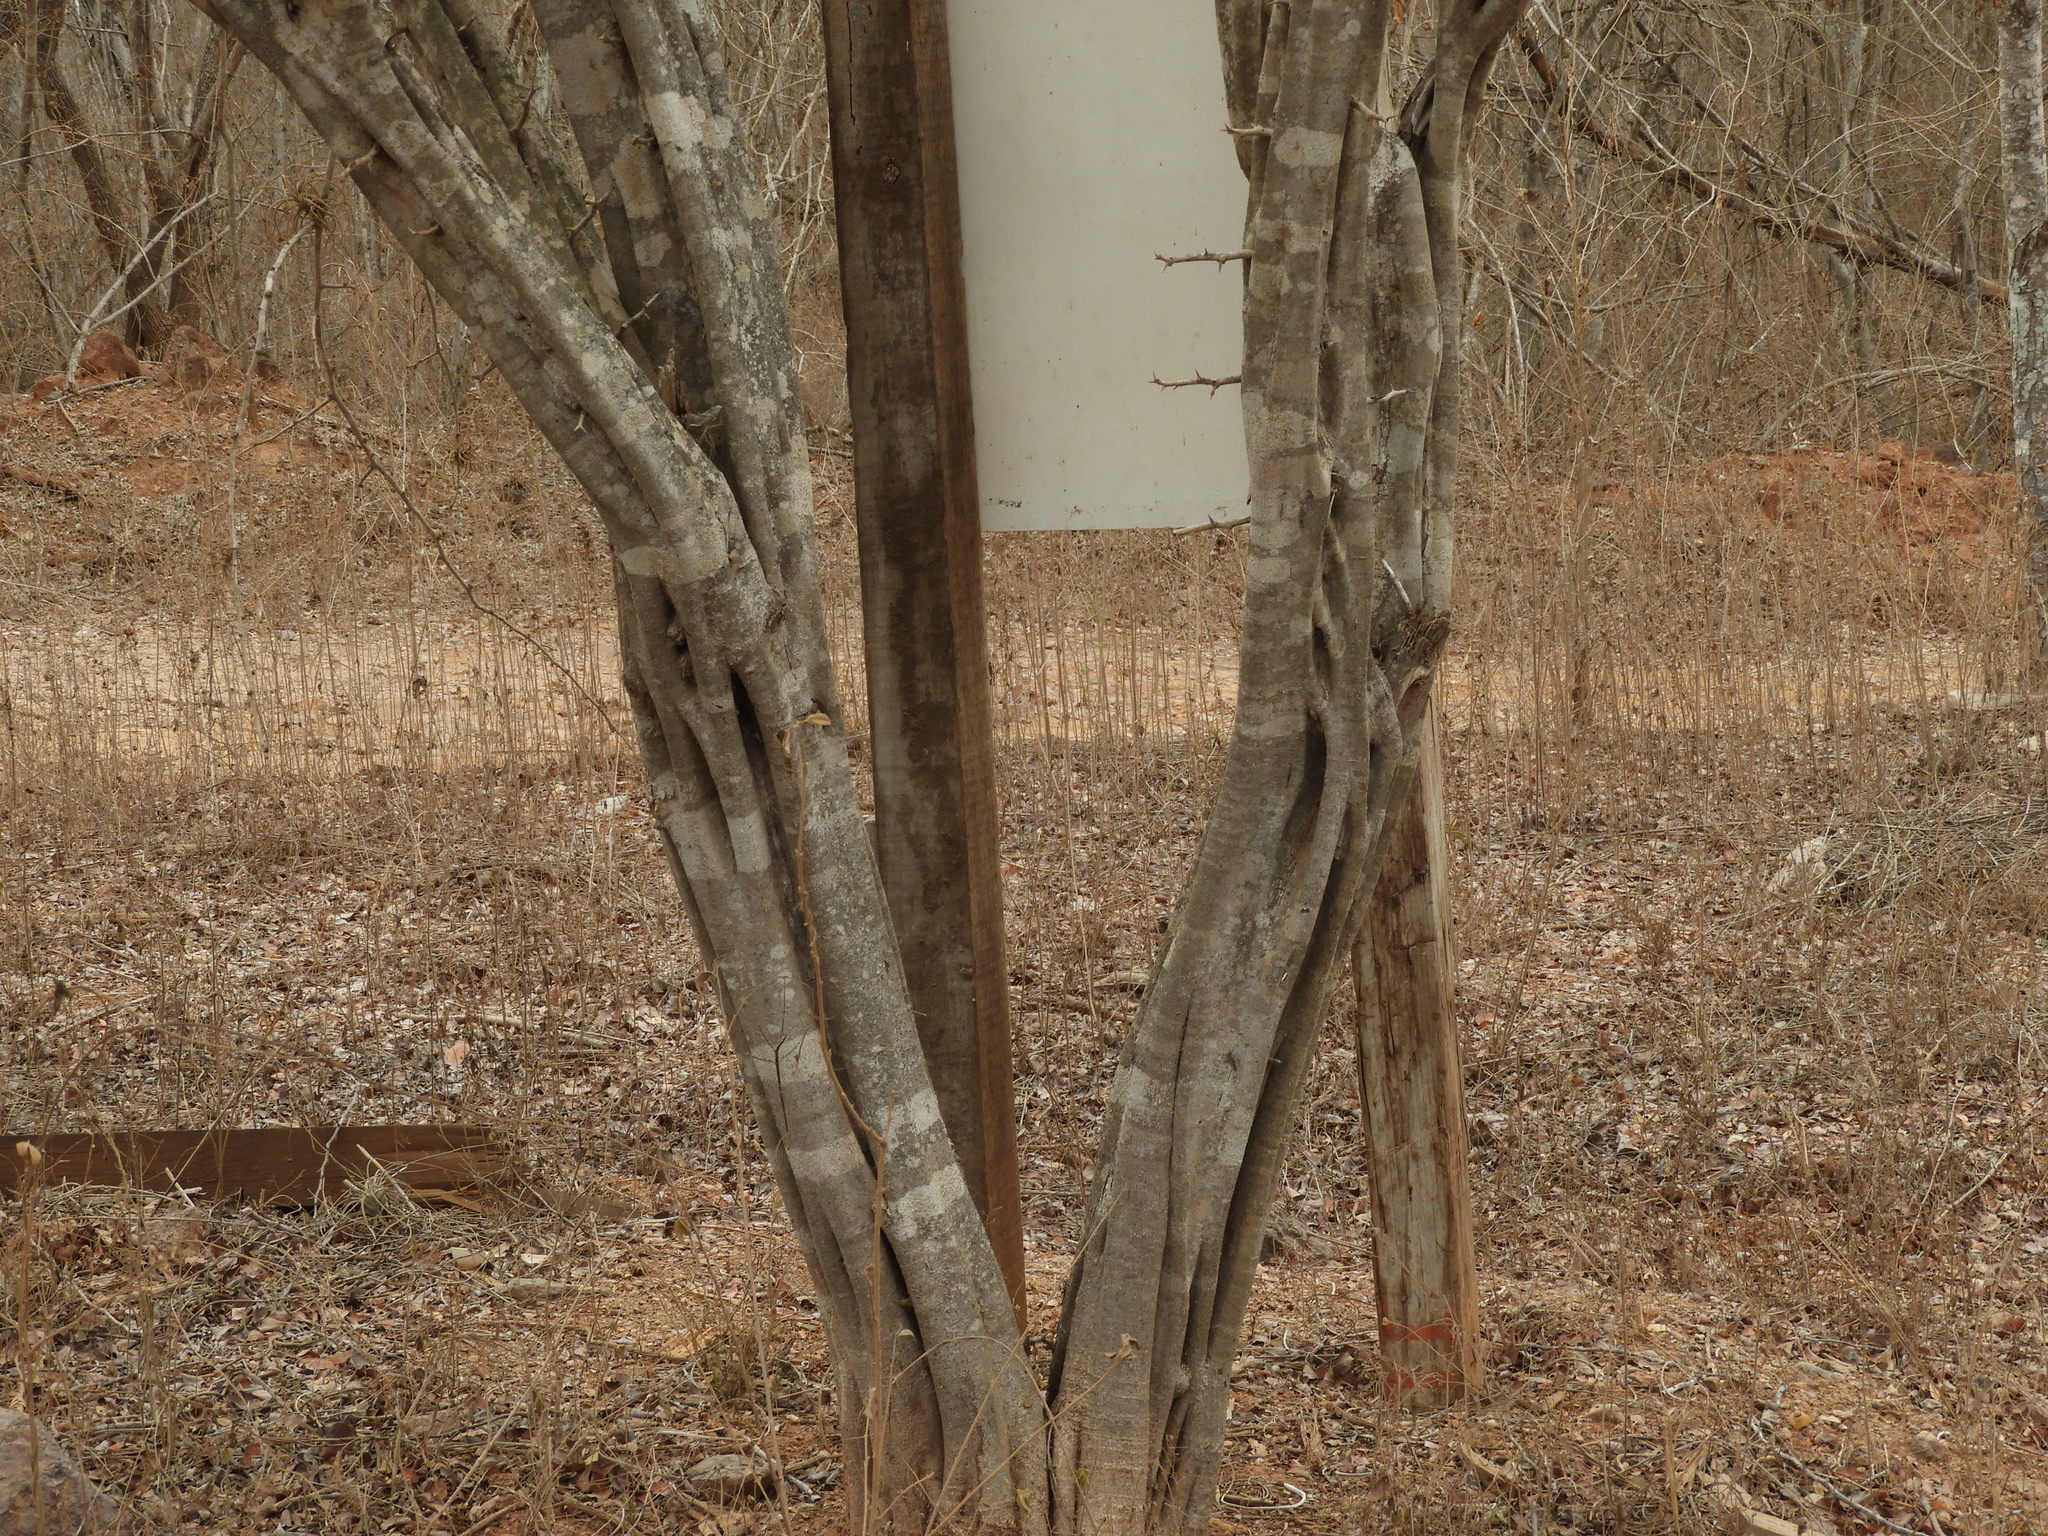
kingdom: Plantae
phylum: Tracheophyta
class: Magnoliopsida
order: Fabales
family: Fabaceae
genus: Haematoxylum
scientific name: Haematoxylum brasiletto
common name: Peachwood
